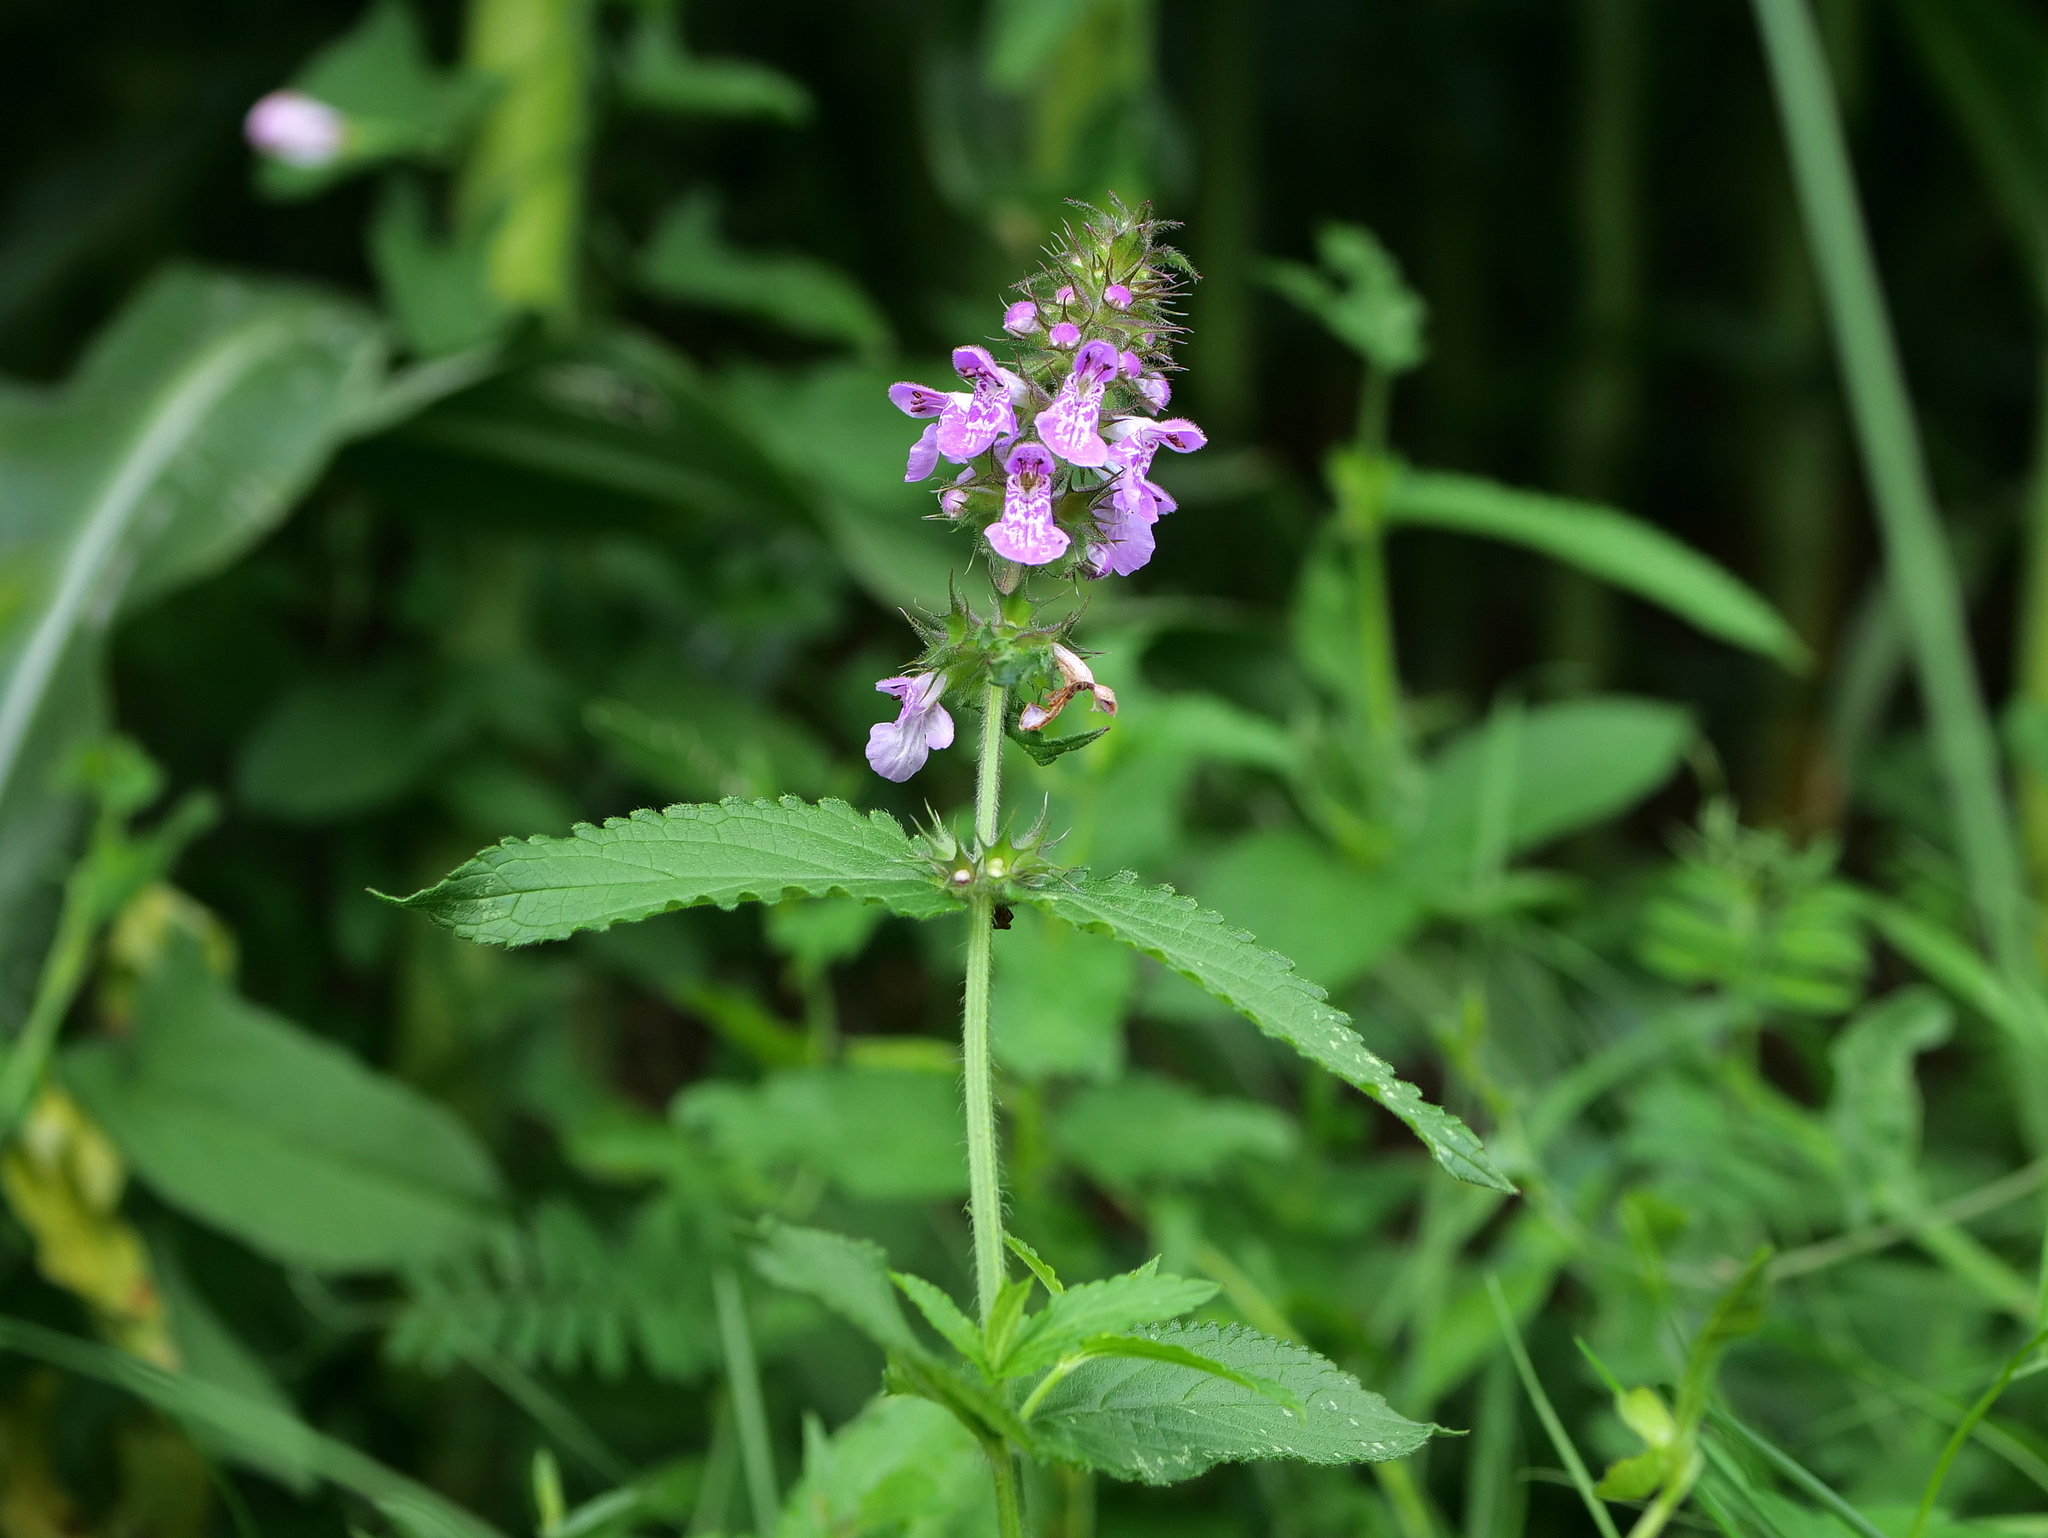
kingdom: Plantae
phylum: Tracheophyta
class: Magnoliopsida
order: Lamiales
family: Lamiaceae
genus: Stachys
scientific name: Stachys palustris
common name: Marsh woundwort
